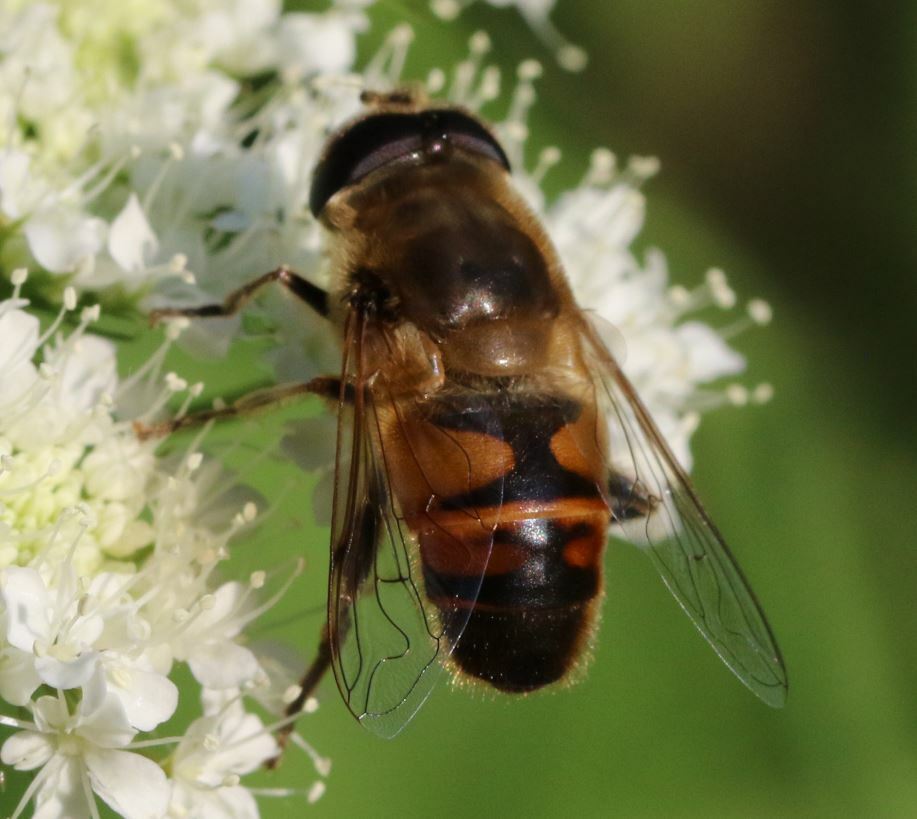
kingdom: Animalia
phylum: Arthropoda
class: Insecta
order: Diptera
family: Syrphidae
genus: Eristalis
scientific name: Eristalis tenax
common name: Drone fly
